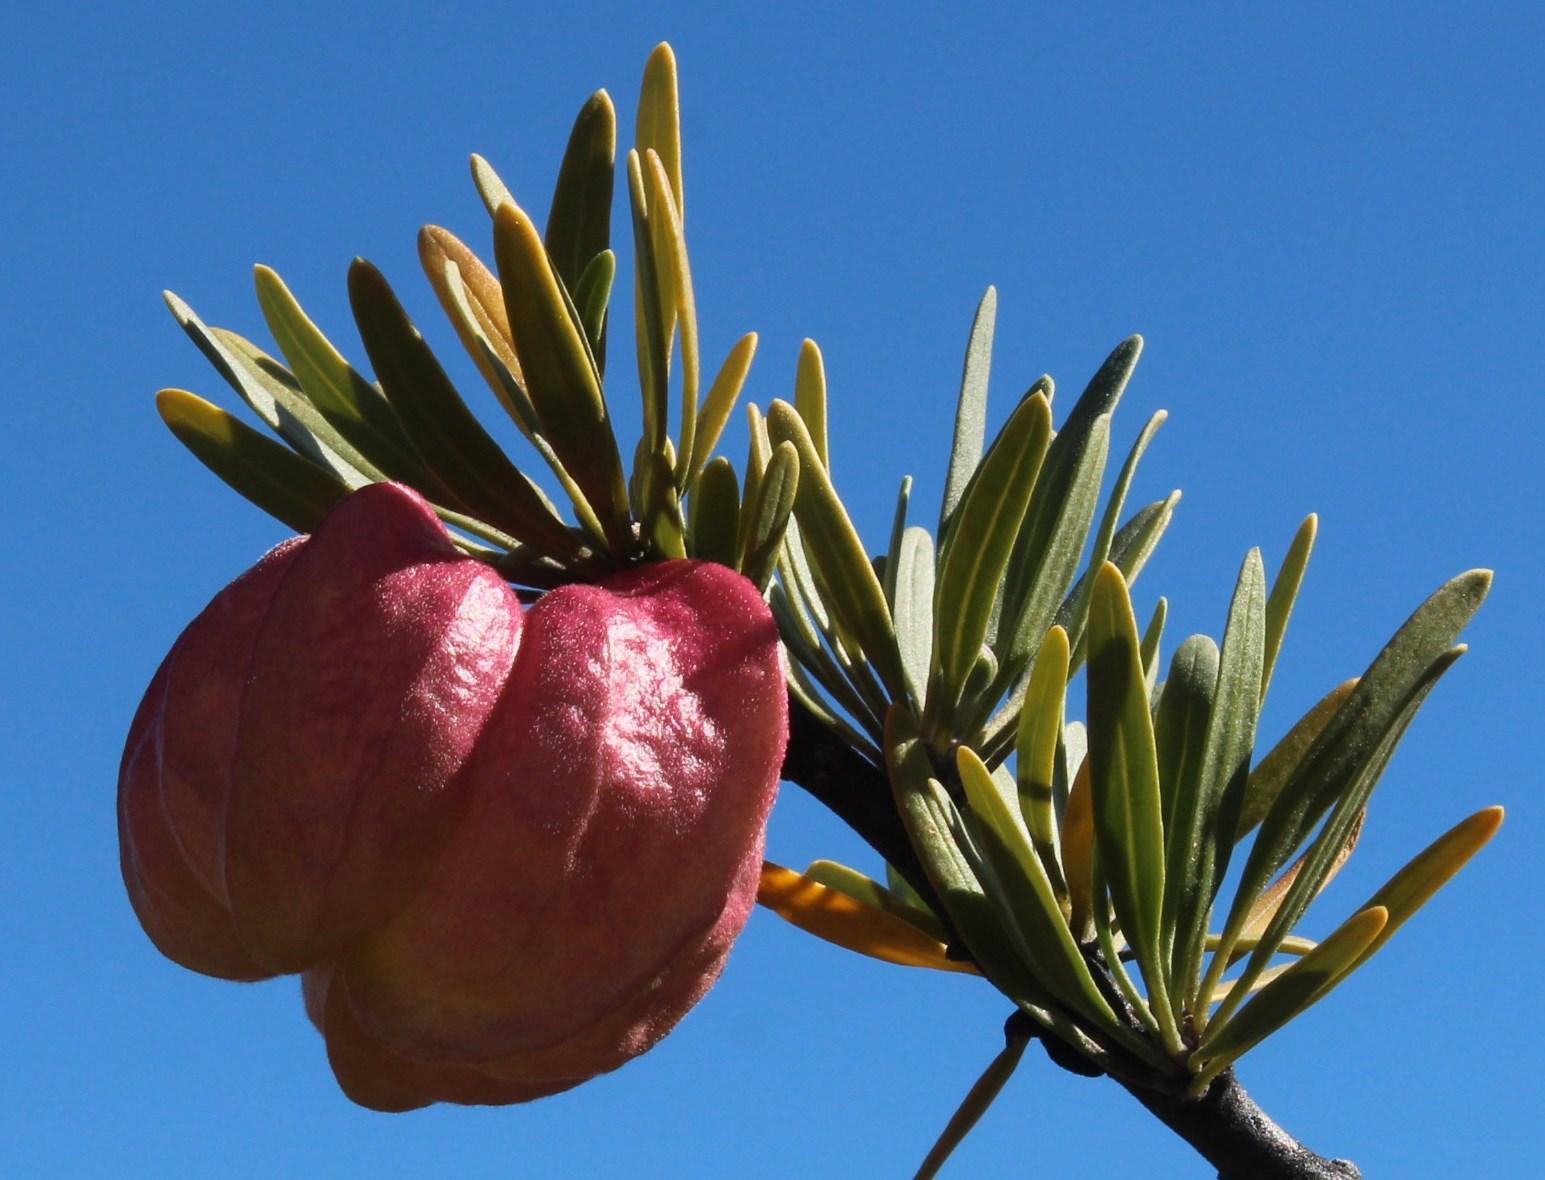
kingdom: Plantae
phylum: Tracheophyta
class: Magnoliopsida
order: Sapindales
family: Meliaceae
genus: Nymania
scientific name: Nymania capensis
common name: Chinese lantern tree
